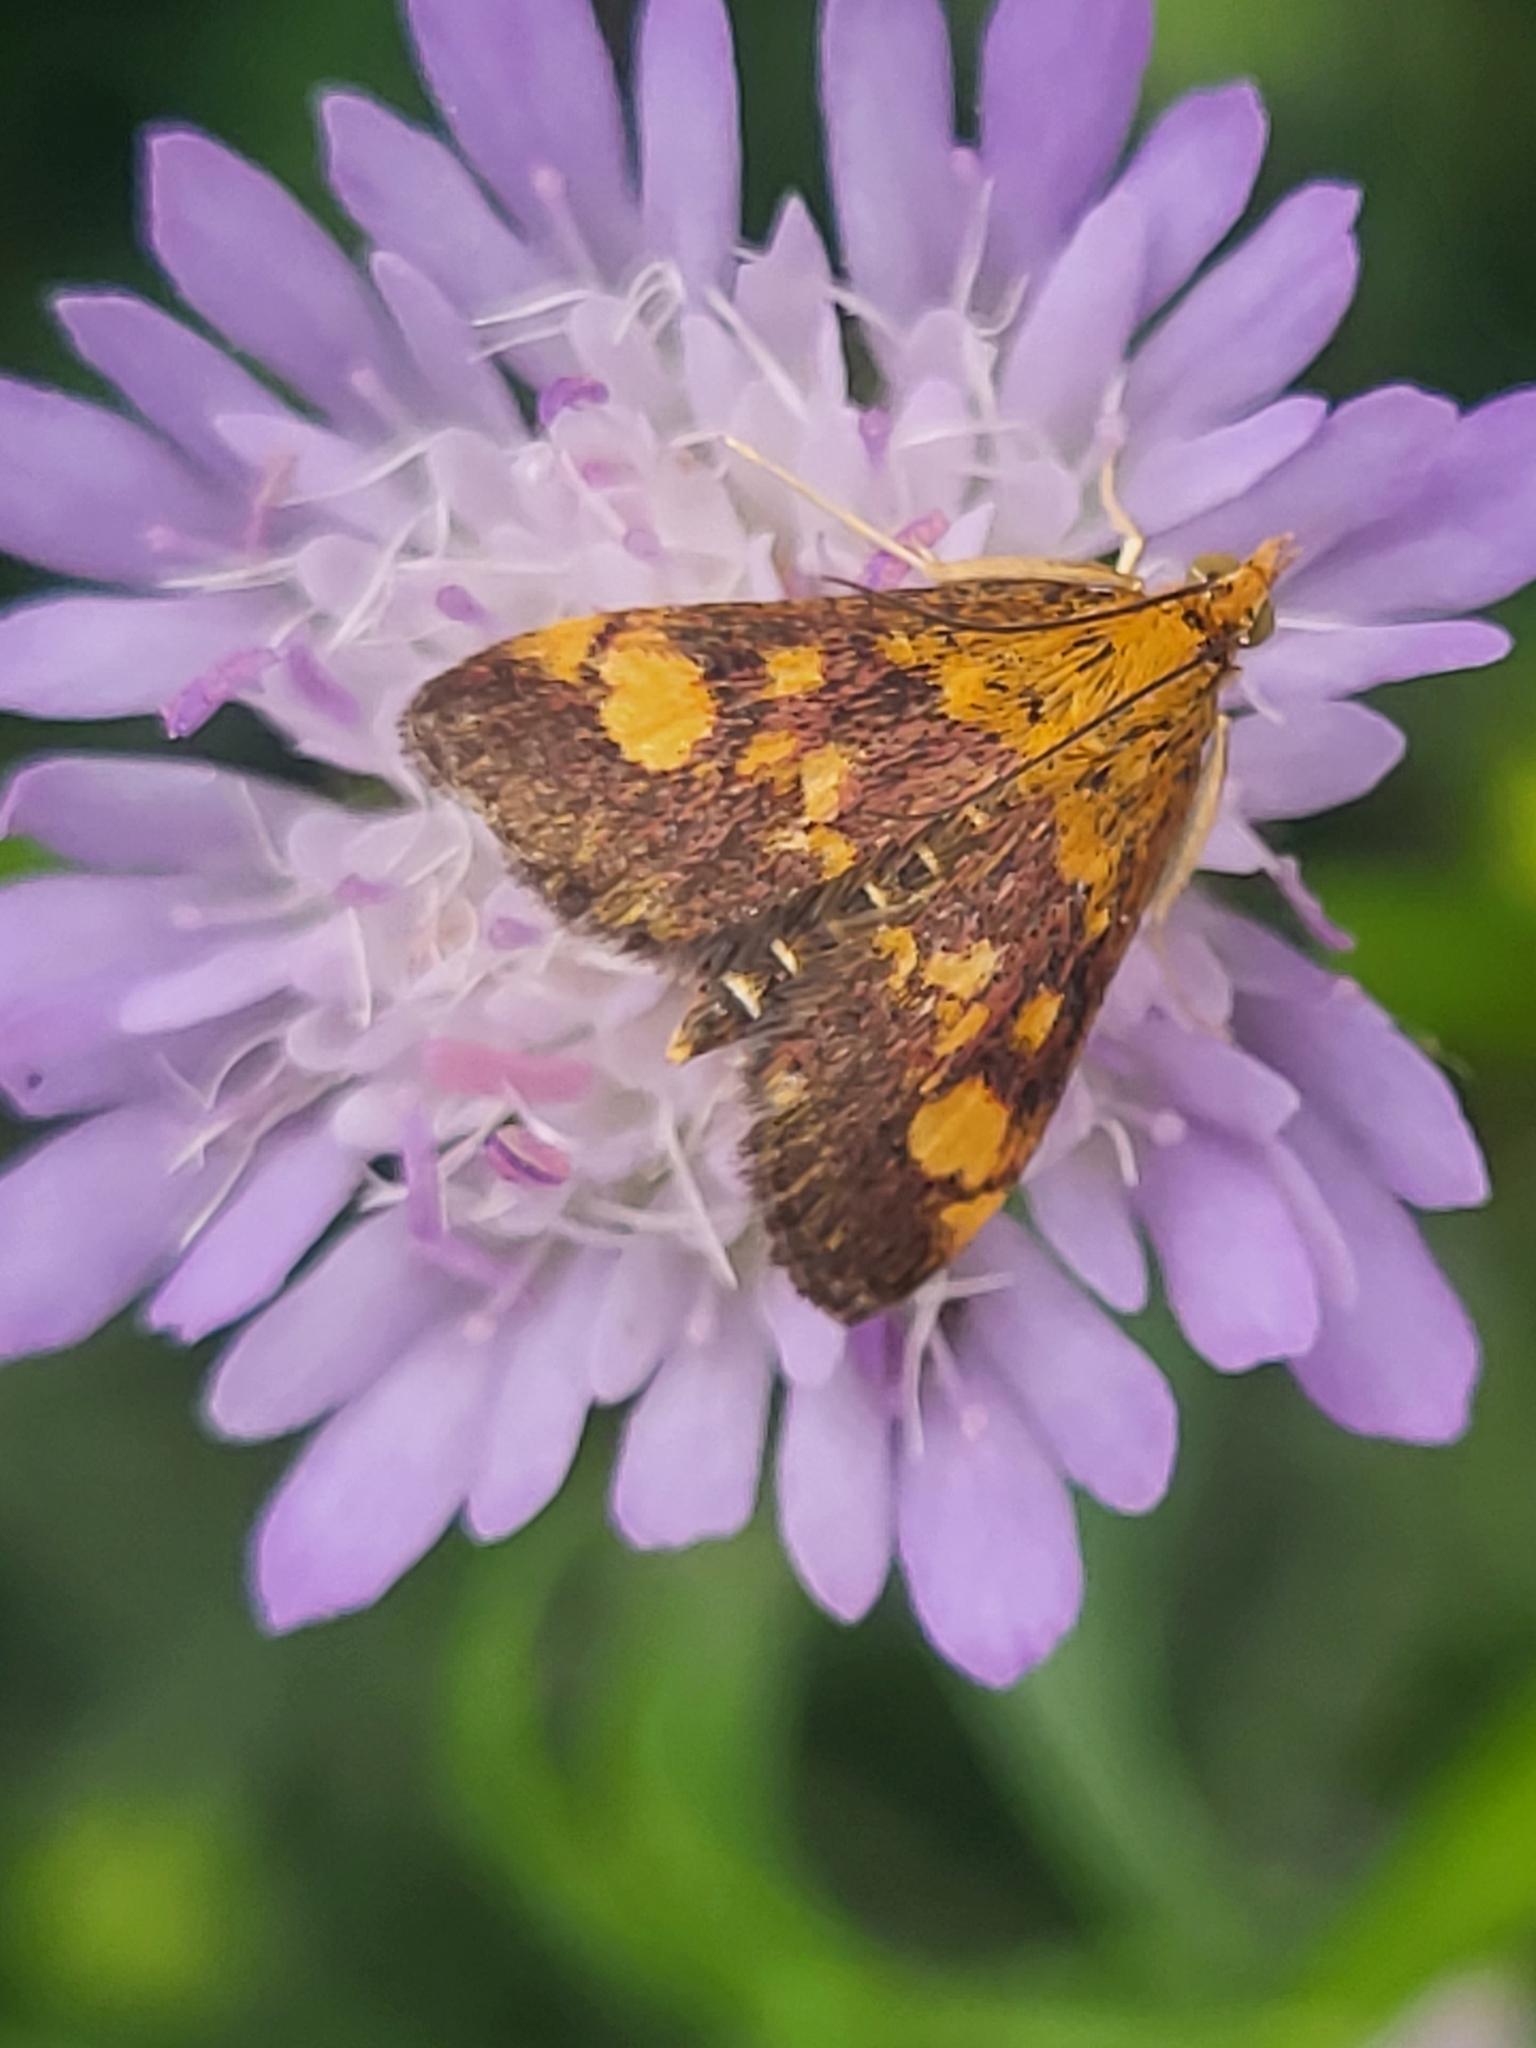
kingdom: Animalia
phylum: Arthropoda
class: Insecta
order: Lepidoptera
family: Crambidae
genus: Pyrausta
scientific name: Pyrausta aurata
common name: Small purple & gold
